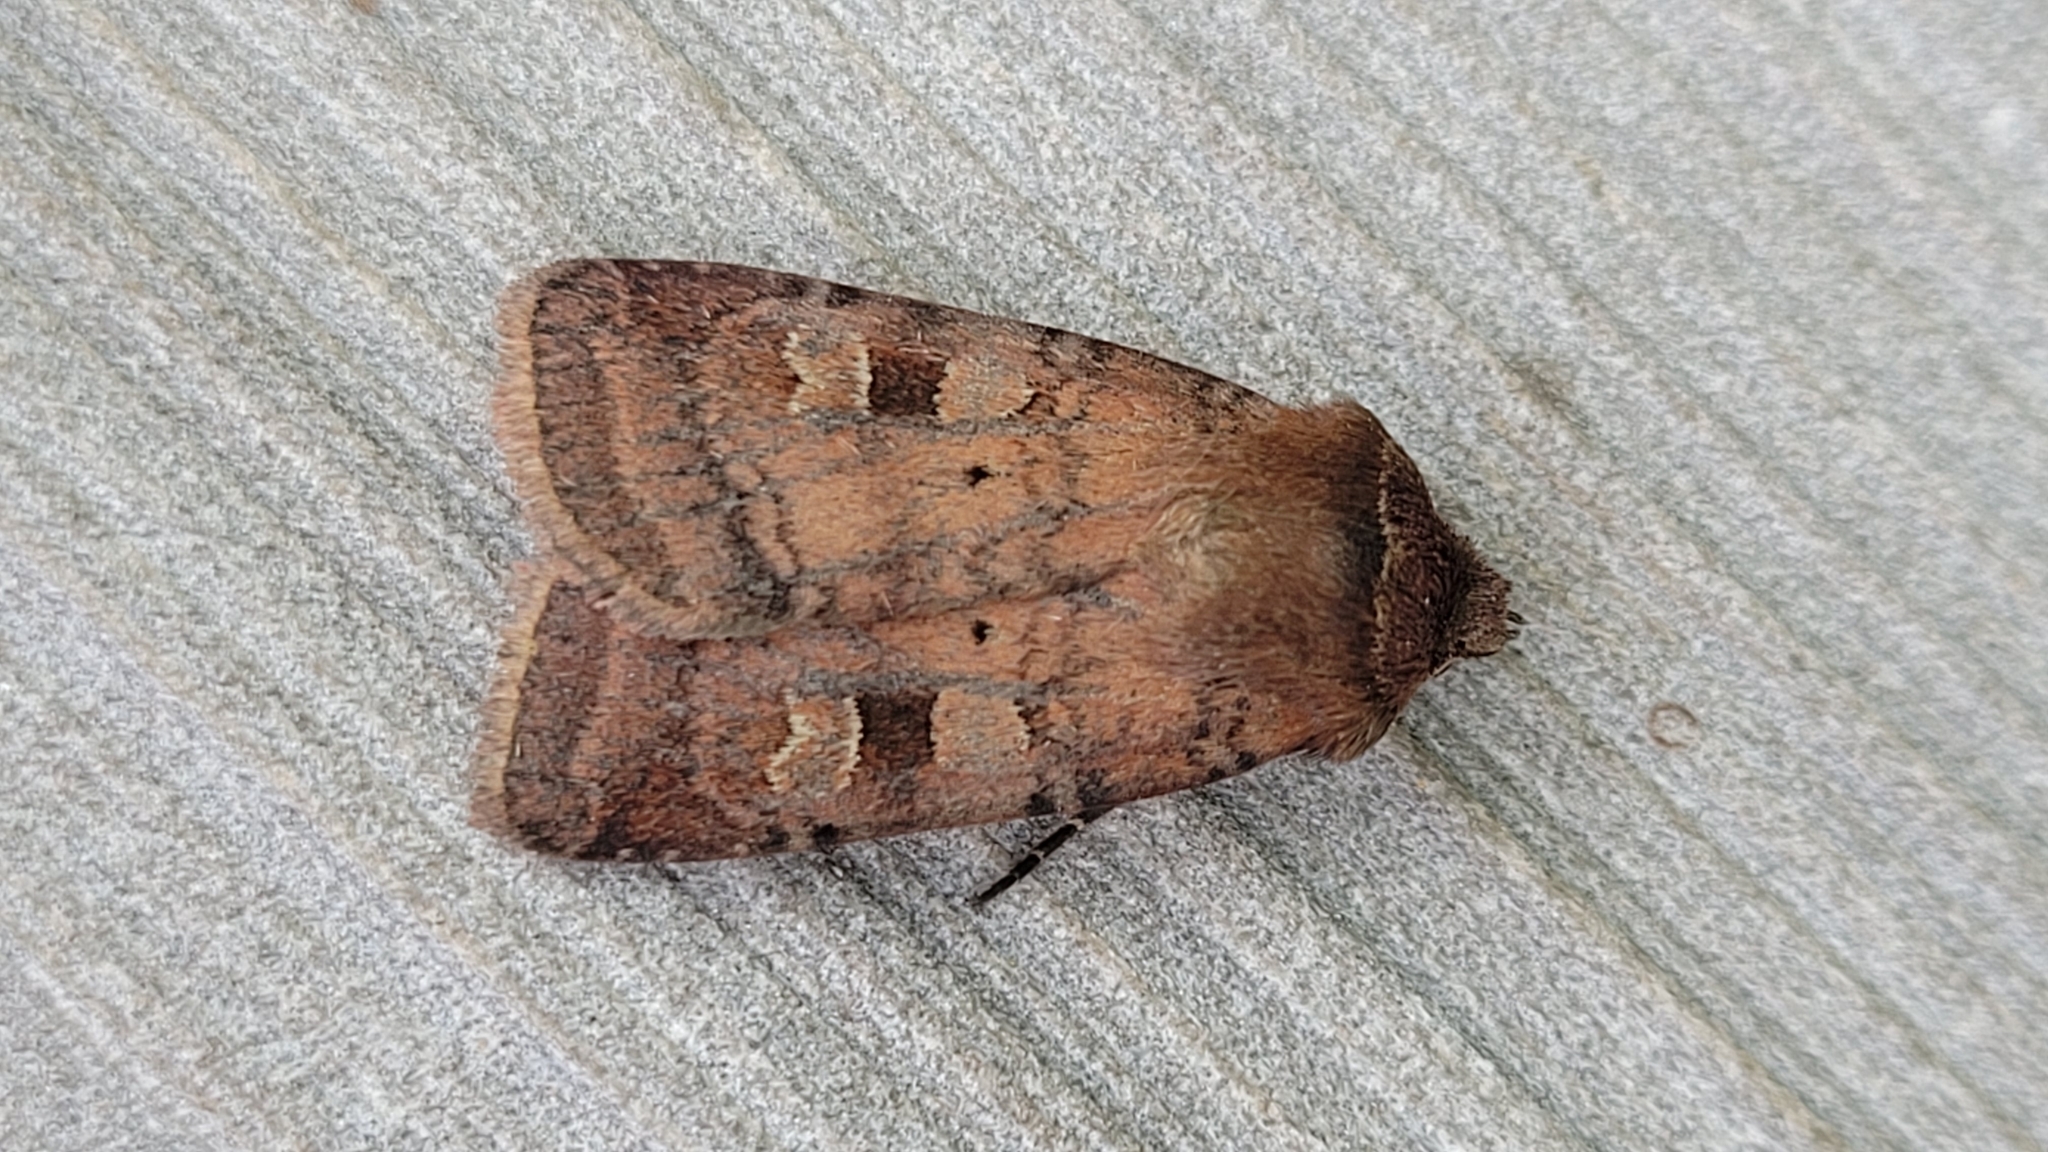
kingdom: Animalia
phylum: Arthropoda
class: Insecta
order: Lepidoptera
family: Noctuidae
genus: Diarsia
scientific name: Diarsia rubi
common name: Small square-spot
